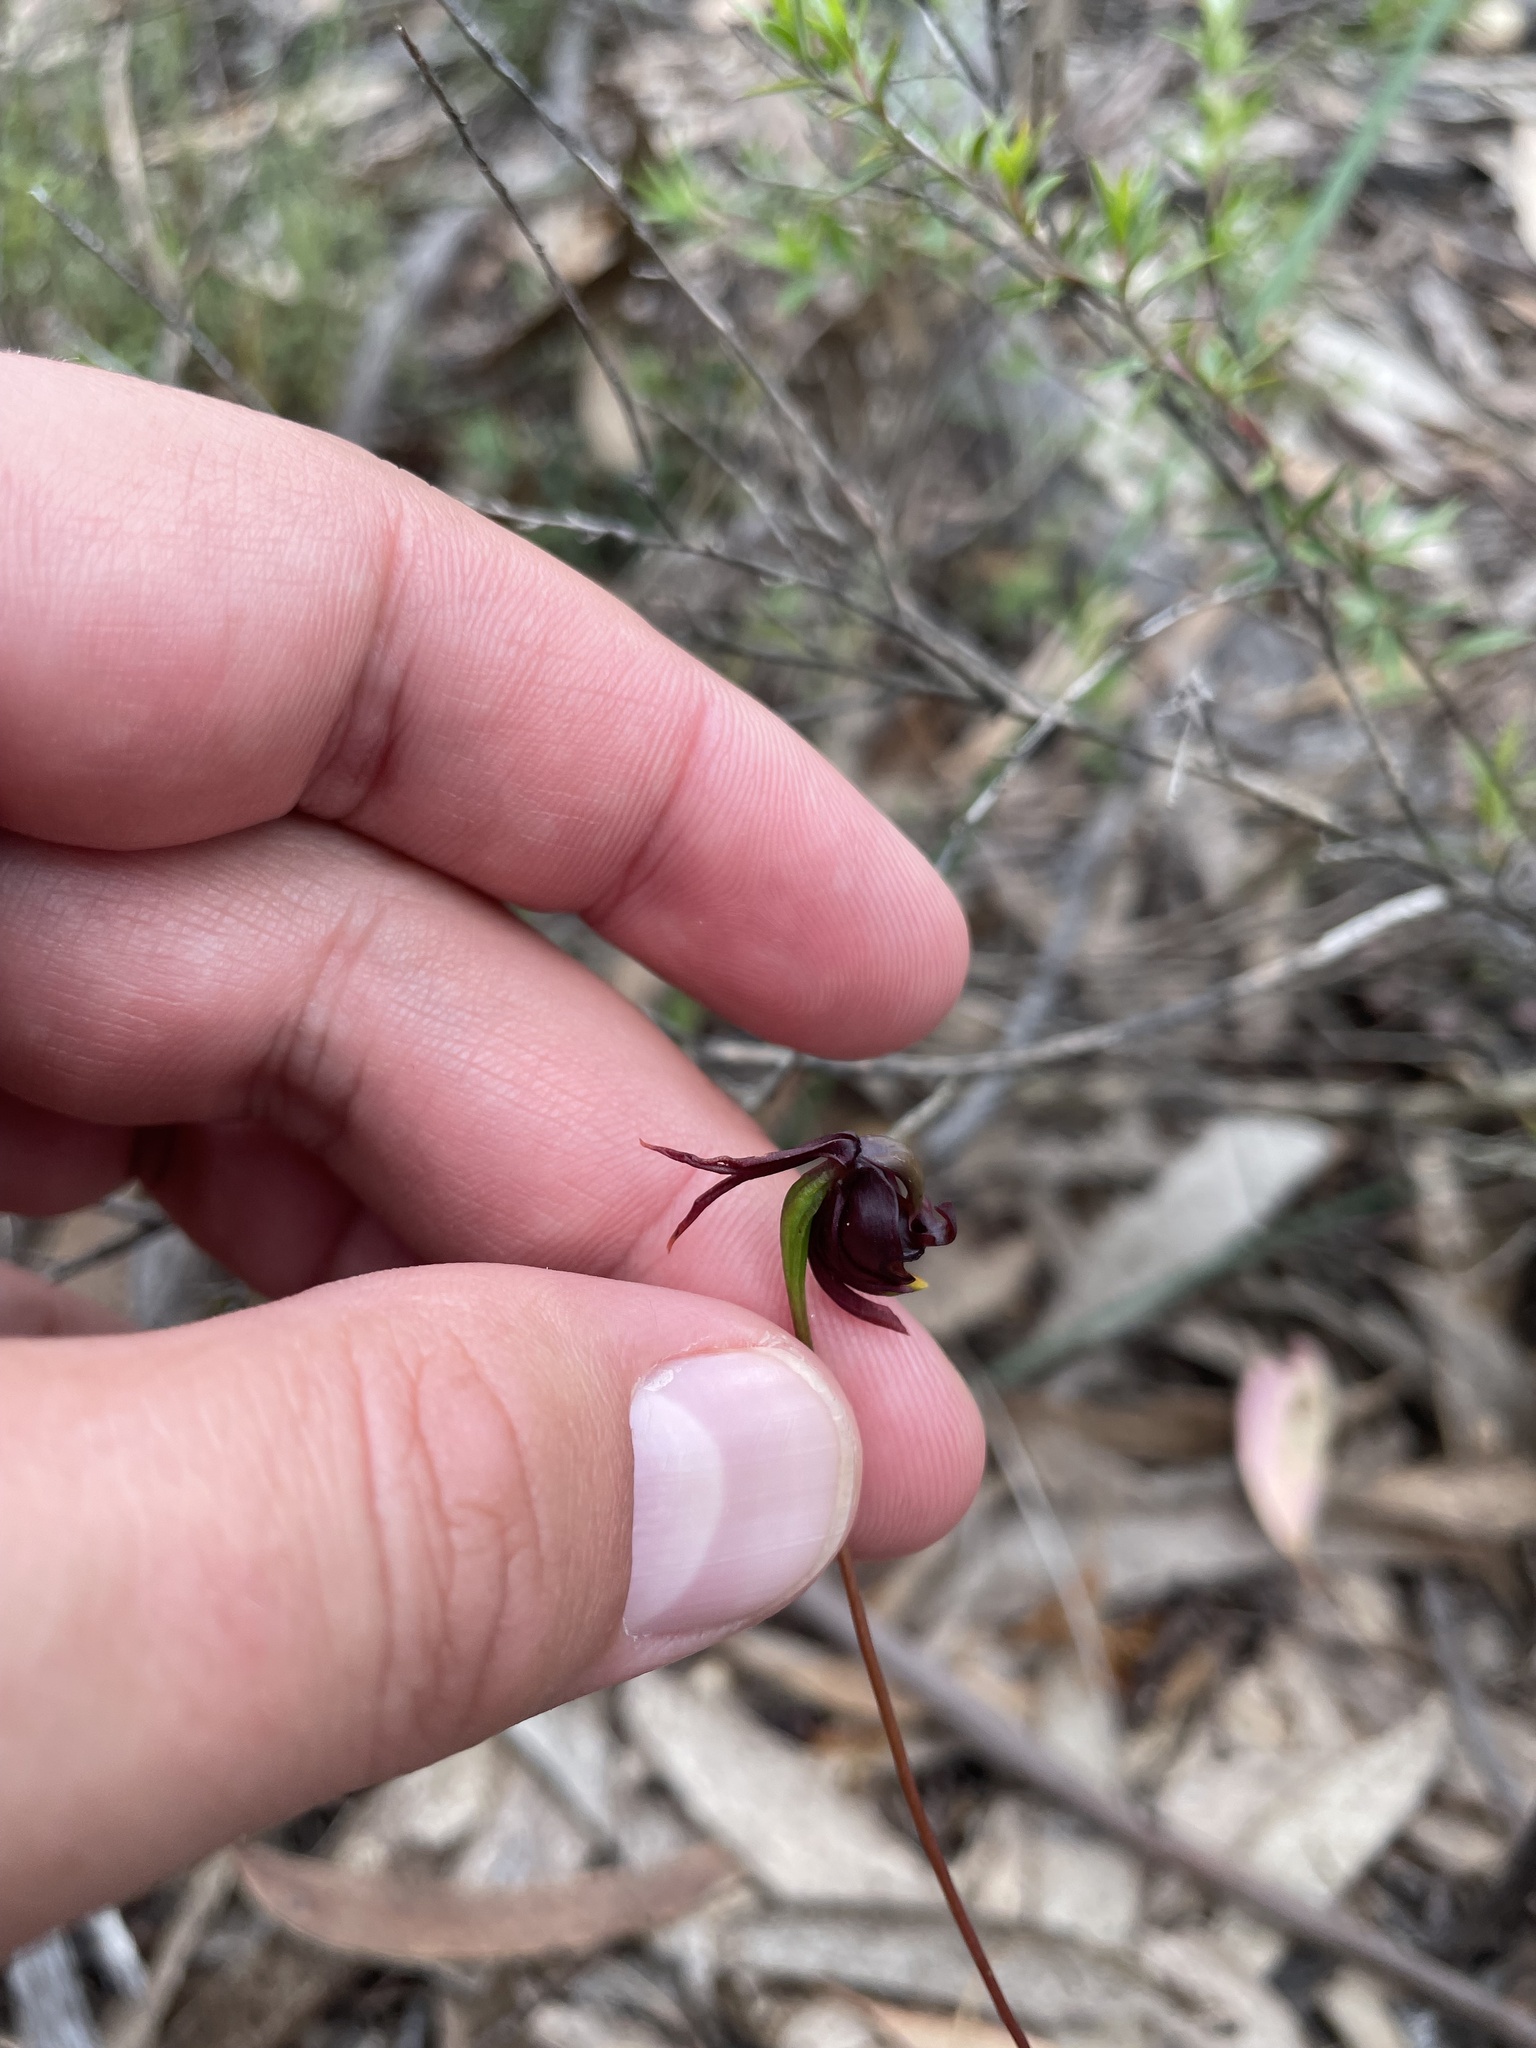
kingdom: Plantae
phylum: Tracheophyta
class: Liliopsida
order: Asparagales
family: Orchidaceae
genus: Caleana
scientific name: Caleana major
